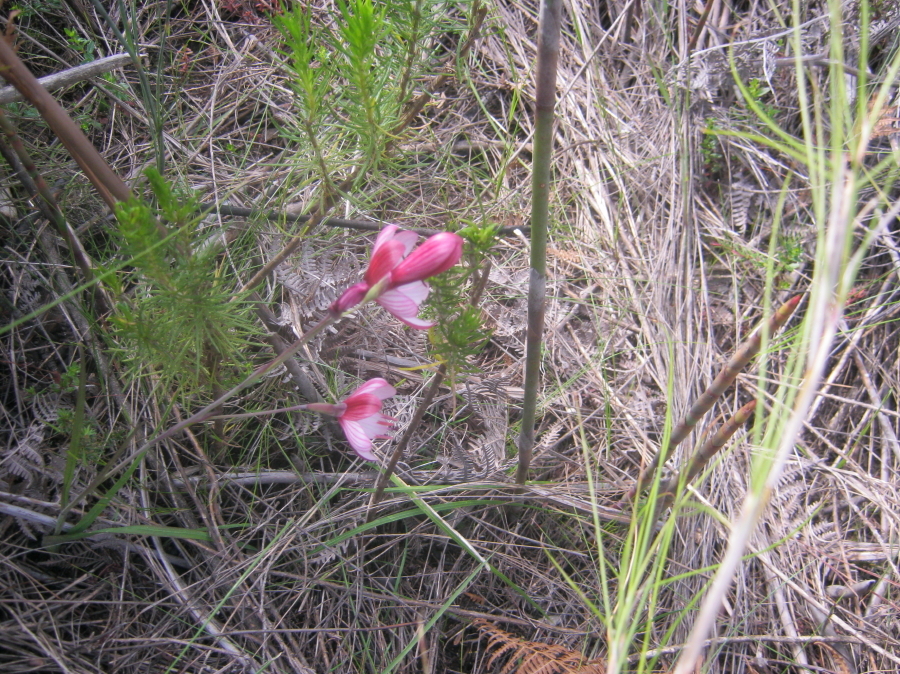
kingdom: Plantae
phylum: Tracheophyta
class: Liliopsida
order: Asparagales
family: Iridaceae
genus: Geissorhiza
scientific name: Geissorhiza roseoalba
